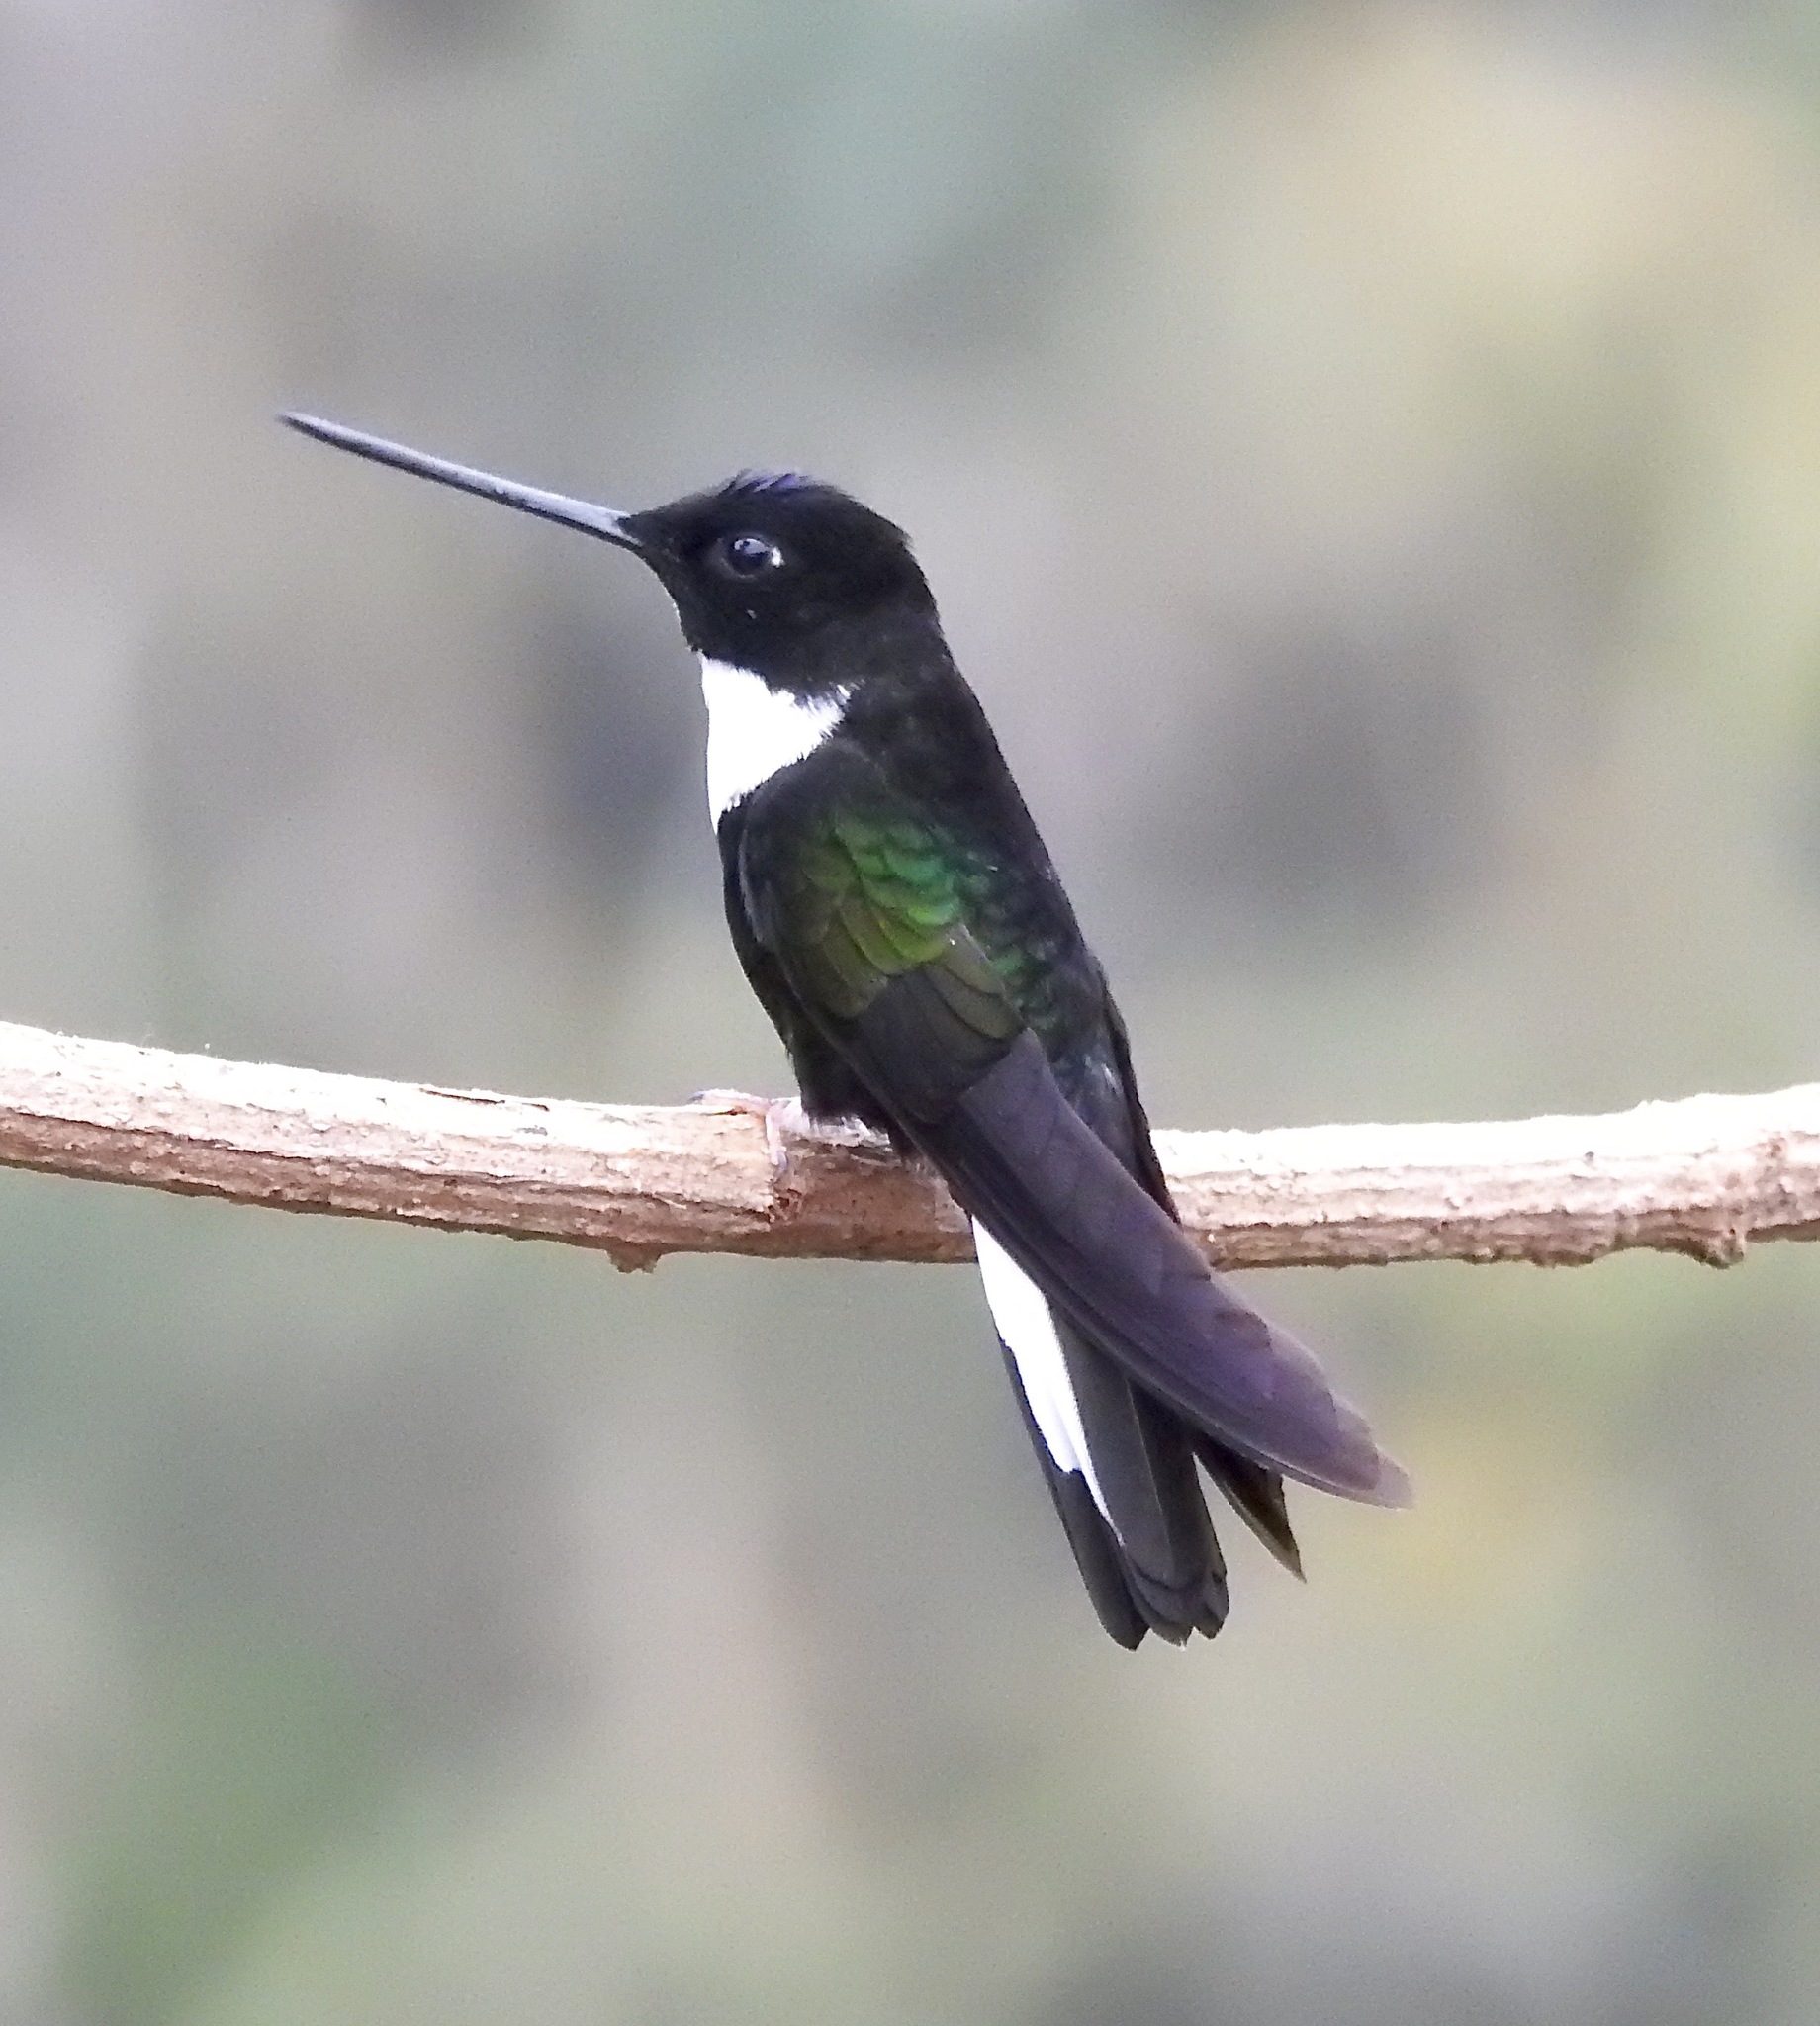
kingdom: Animalia
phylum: Chordata
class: Aves
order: Apodiformes
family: Trochilidae
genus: Coeligena
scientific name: Coeligena torquata
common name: Collared inca
